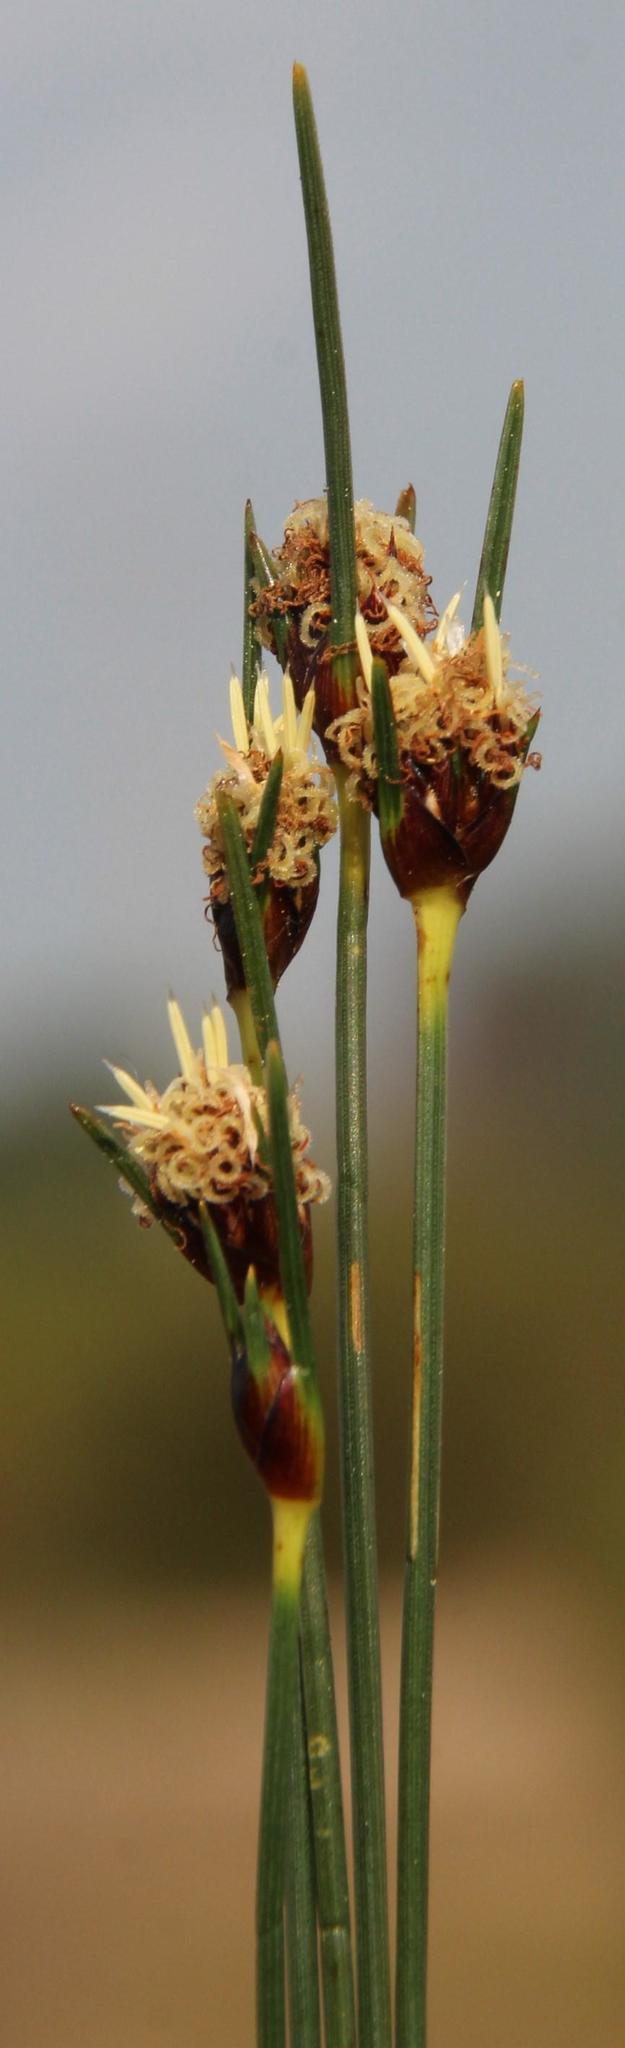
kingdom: Plantae
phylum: Tracheophyta
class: Liliopsida
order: Poales
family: Cyperaceae
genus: Ficinia
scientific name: Ficinia capitella
